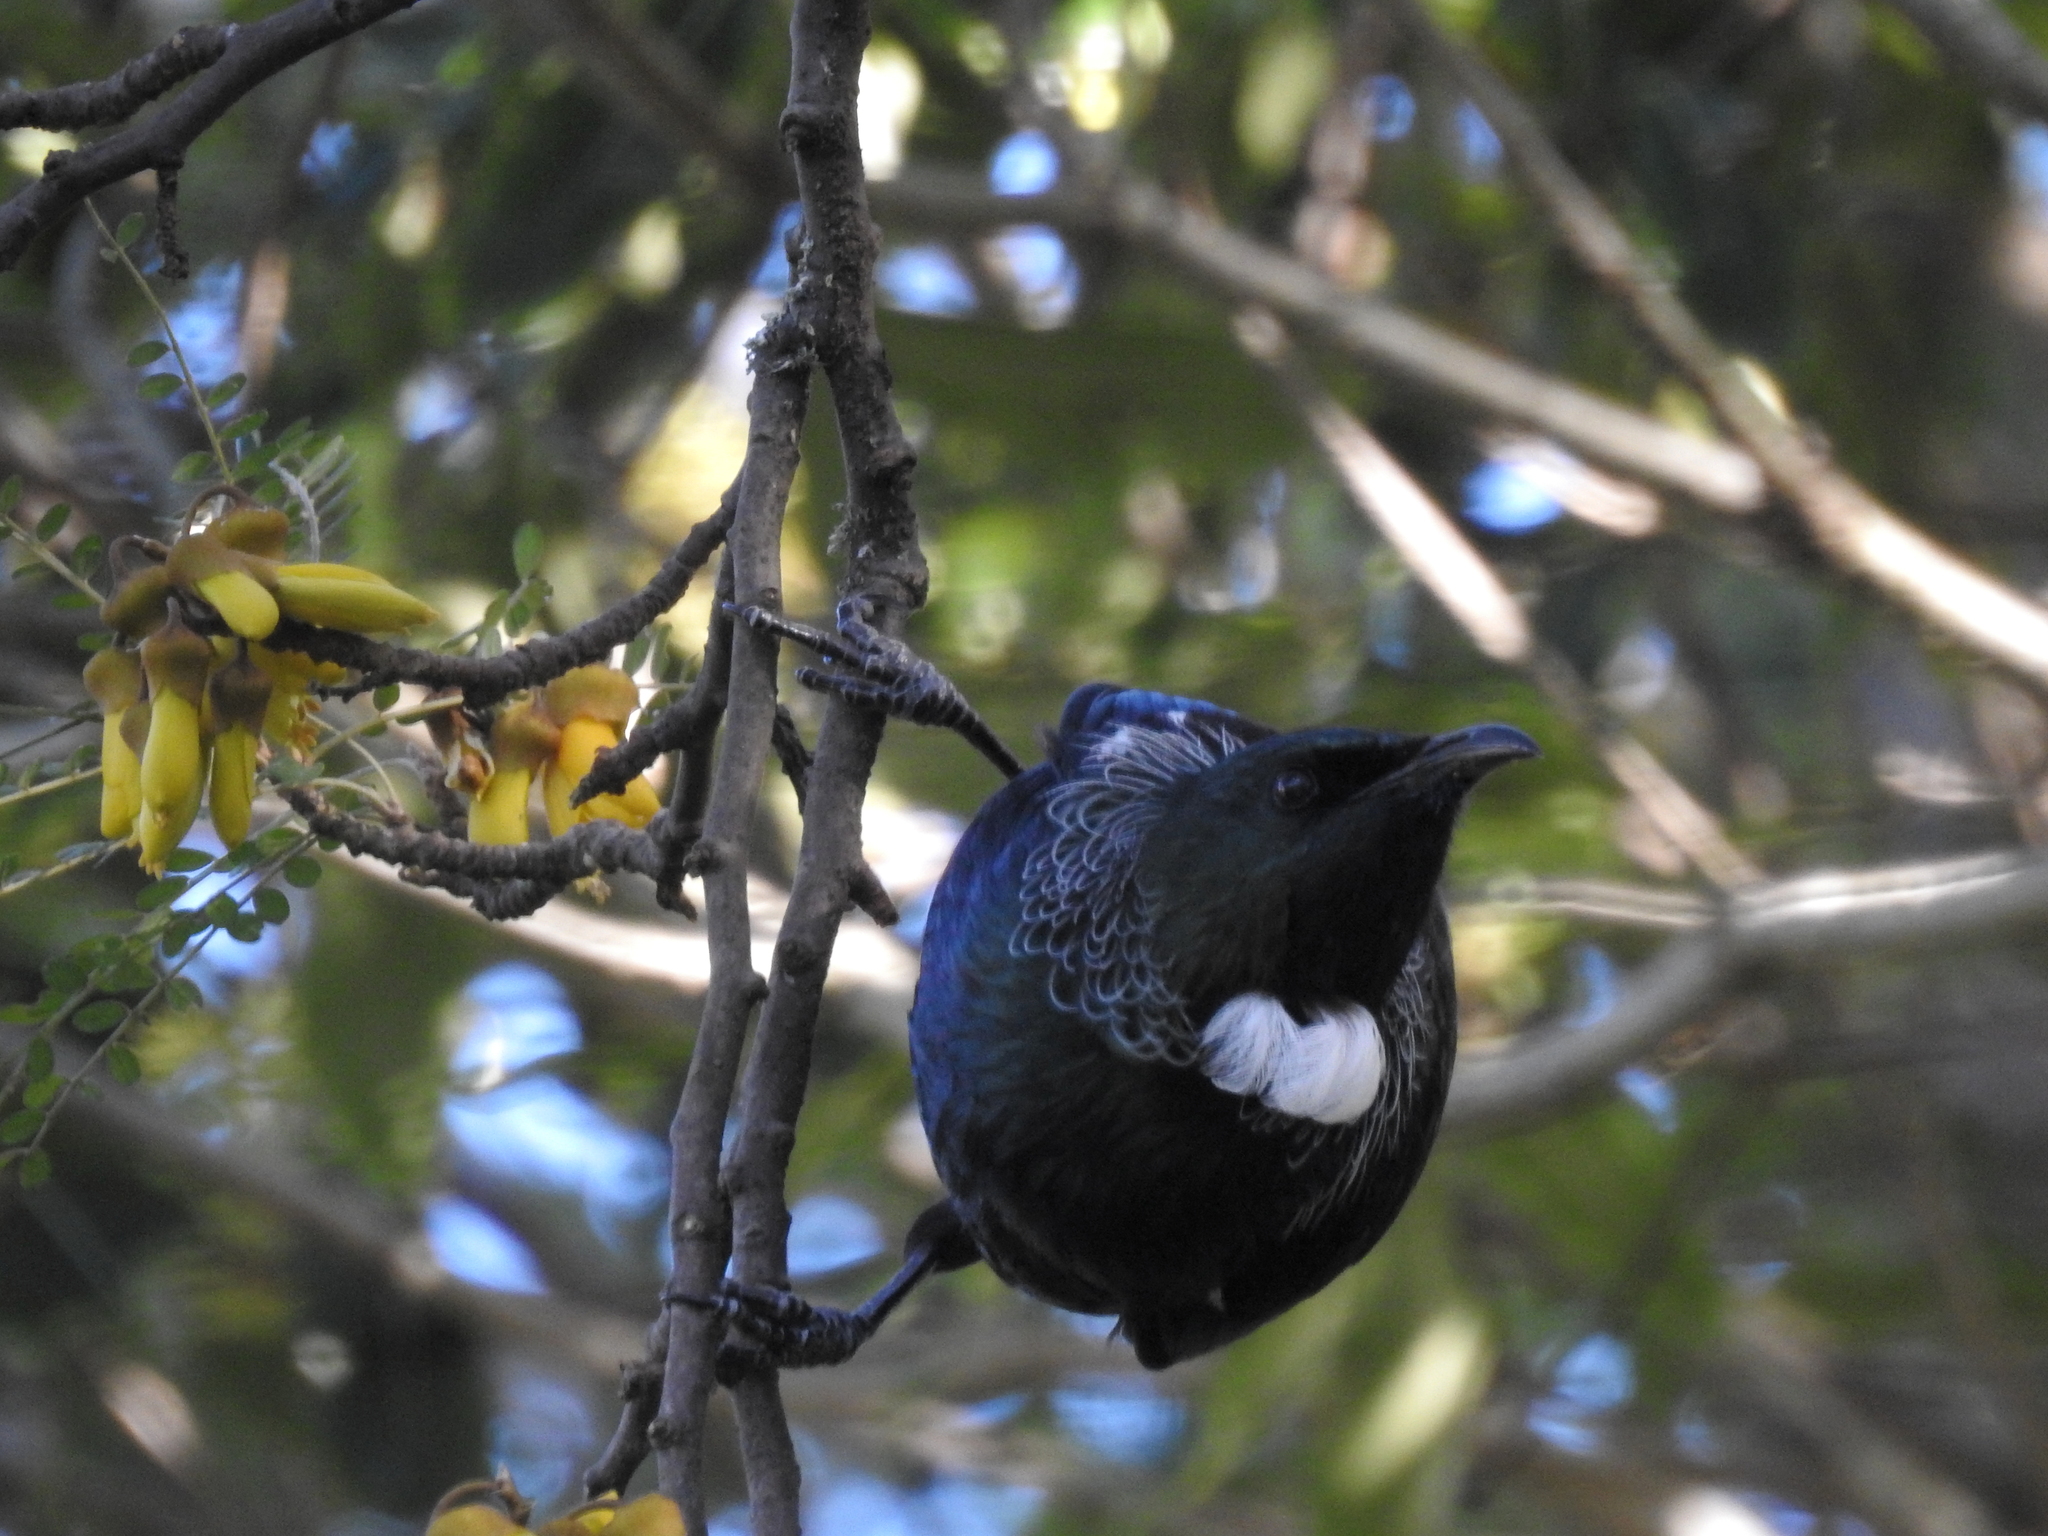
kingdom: Animalia
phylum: Chordata
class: Aves
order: Passeriformes
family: Meliphagidae
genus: Prosthemadera
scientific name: Prosthemadera novaeseelandiae
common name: Tui
